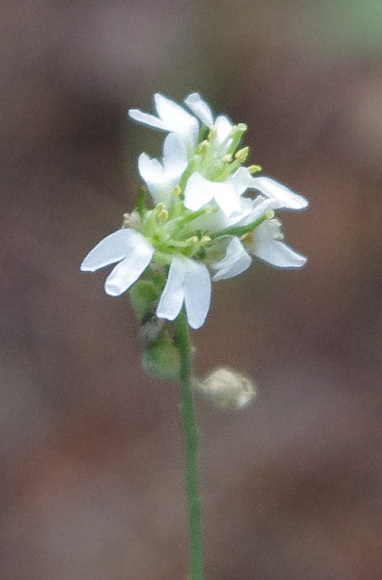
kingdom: Plantae
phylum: Tracheophyta
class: Magnoliopsida
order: Brassicales
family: Brassicaceae
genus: Berteroa
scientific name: Berteroa incana
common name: Hoary alison
